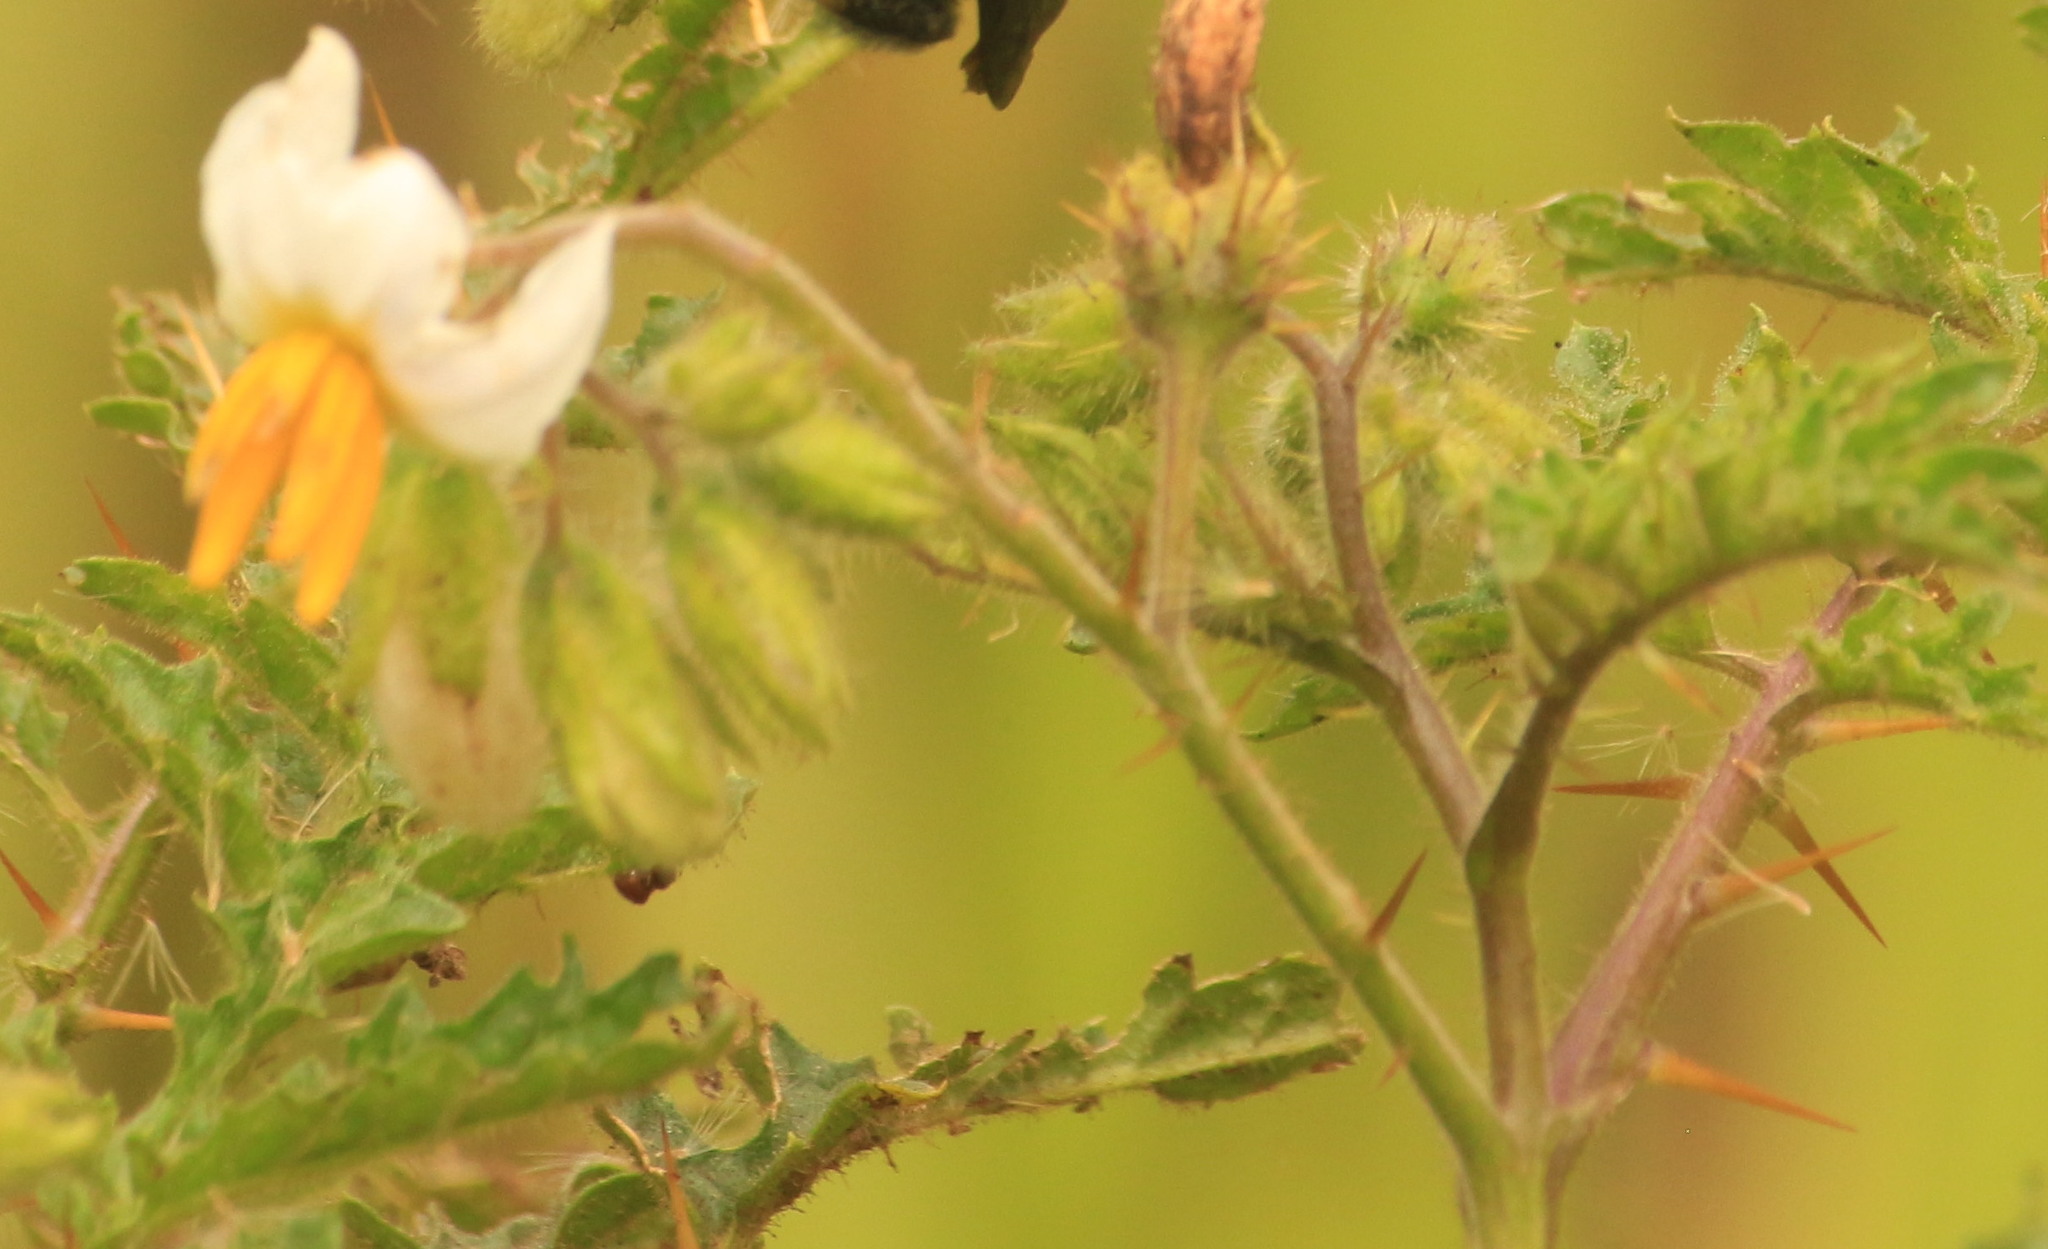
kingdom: Plantae
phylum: Tracheophyta
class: Magnoliopsida
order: Solanales
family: Solanaceae
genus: Solanum
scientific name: Solanum sisymbriifolium
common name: Red buffalo-bur
